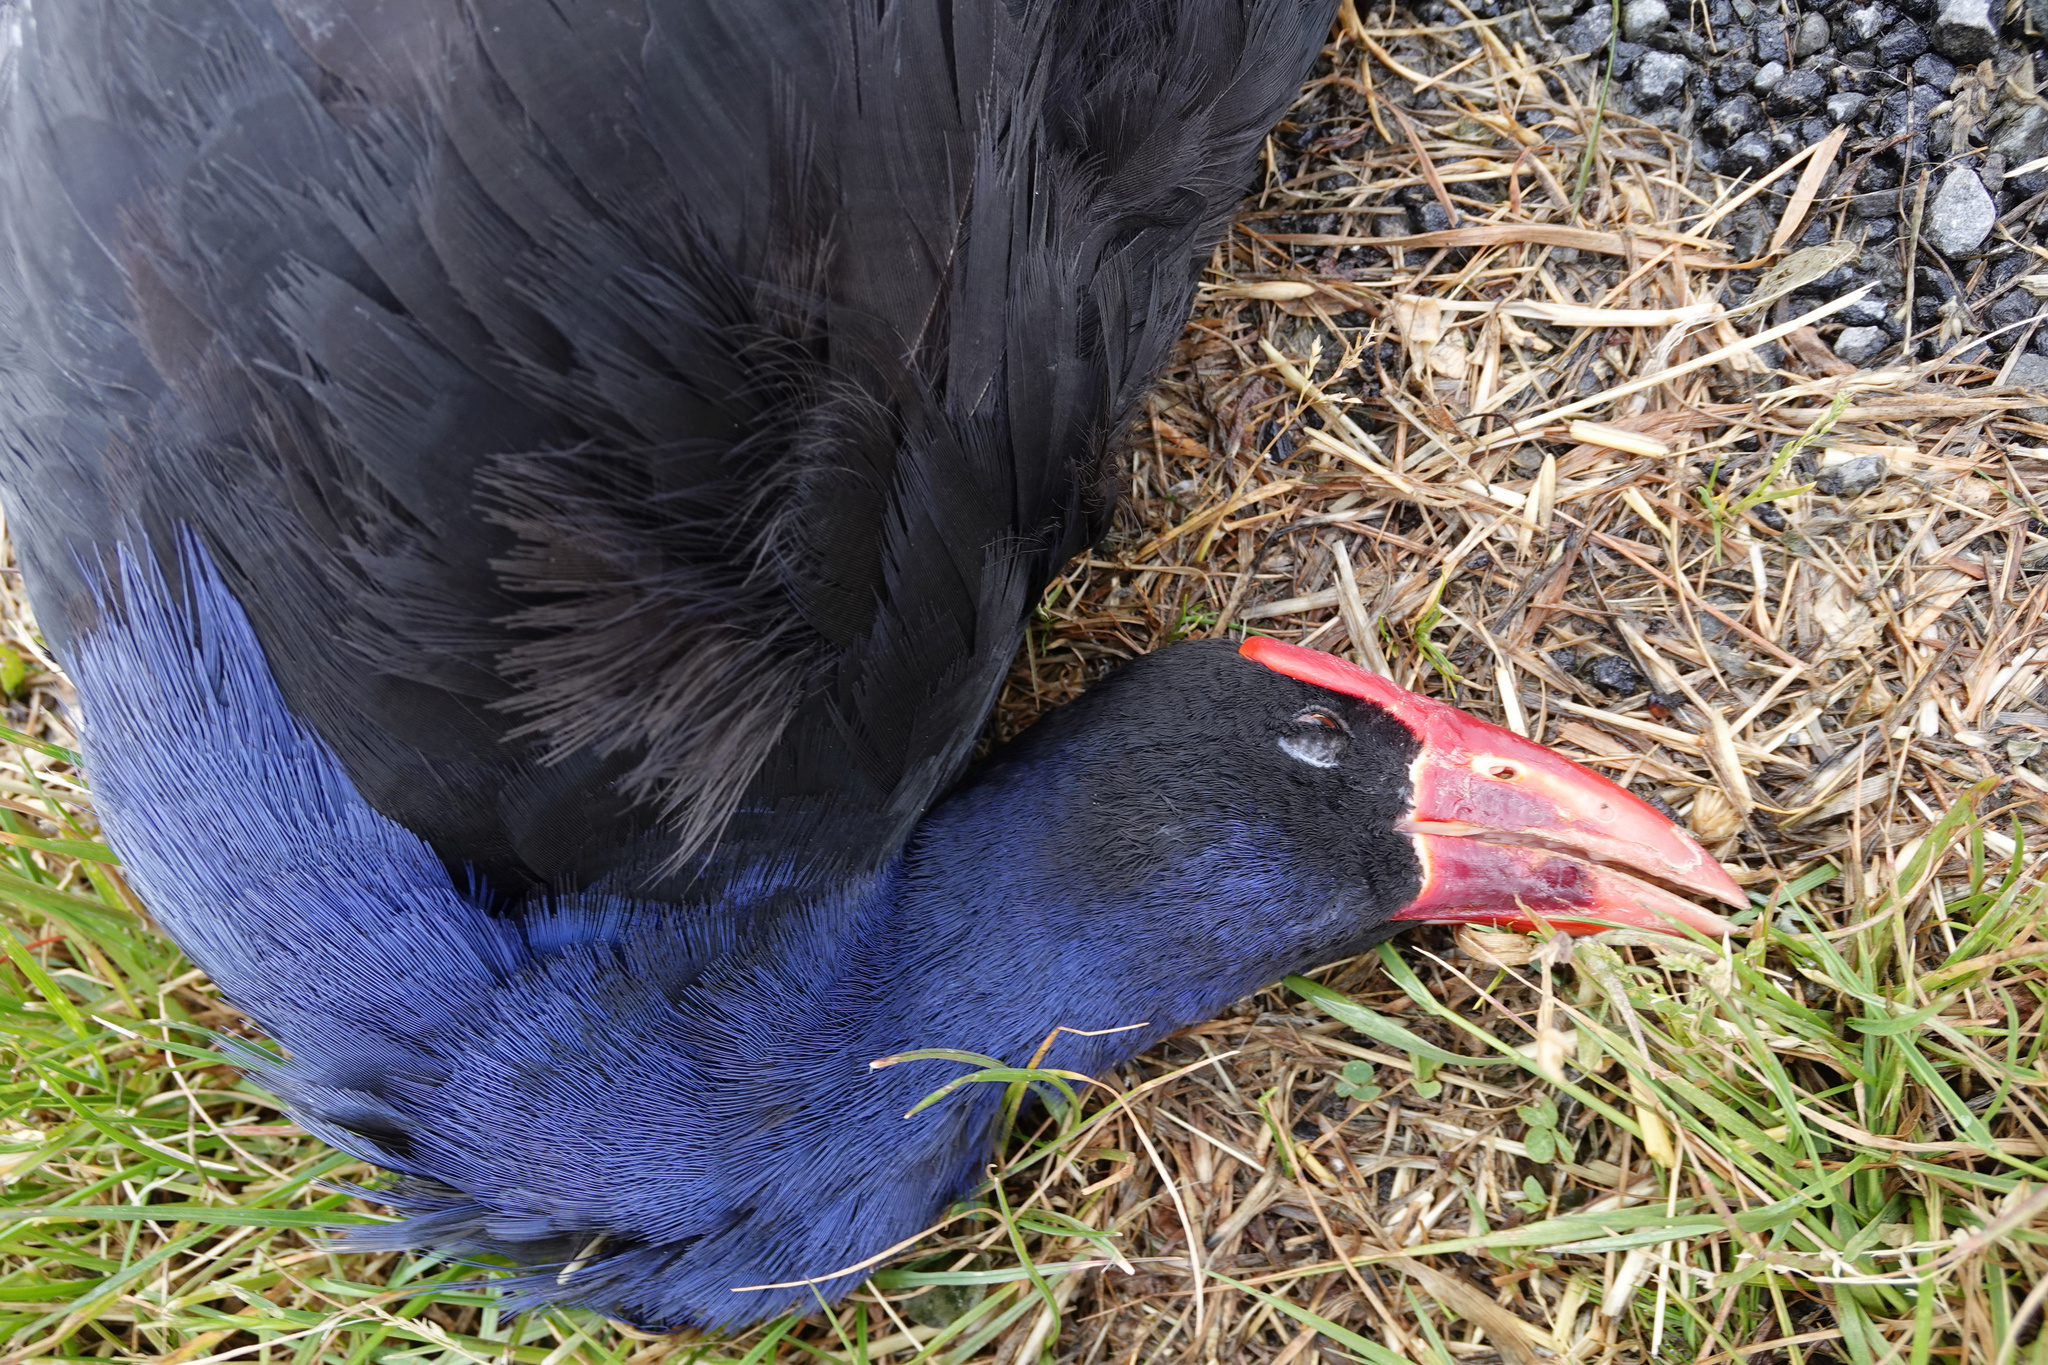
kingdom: Animalia
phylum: Chordata
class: Aves
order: Gruiformes
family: Rallidae
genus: Porphyrio
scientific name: Porphyrio melanotus
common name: Australasian swamphen
